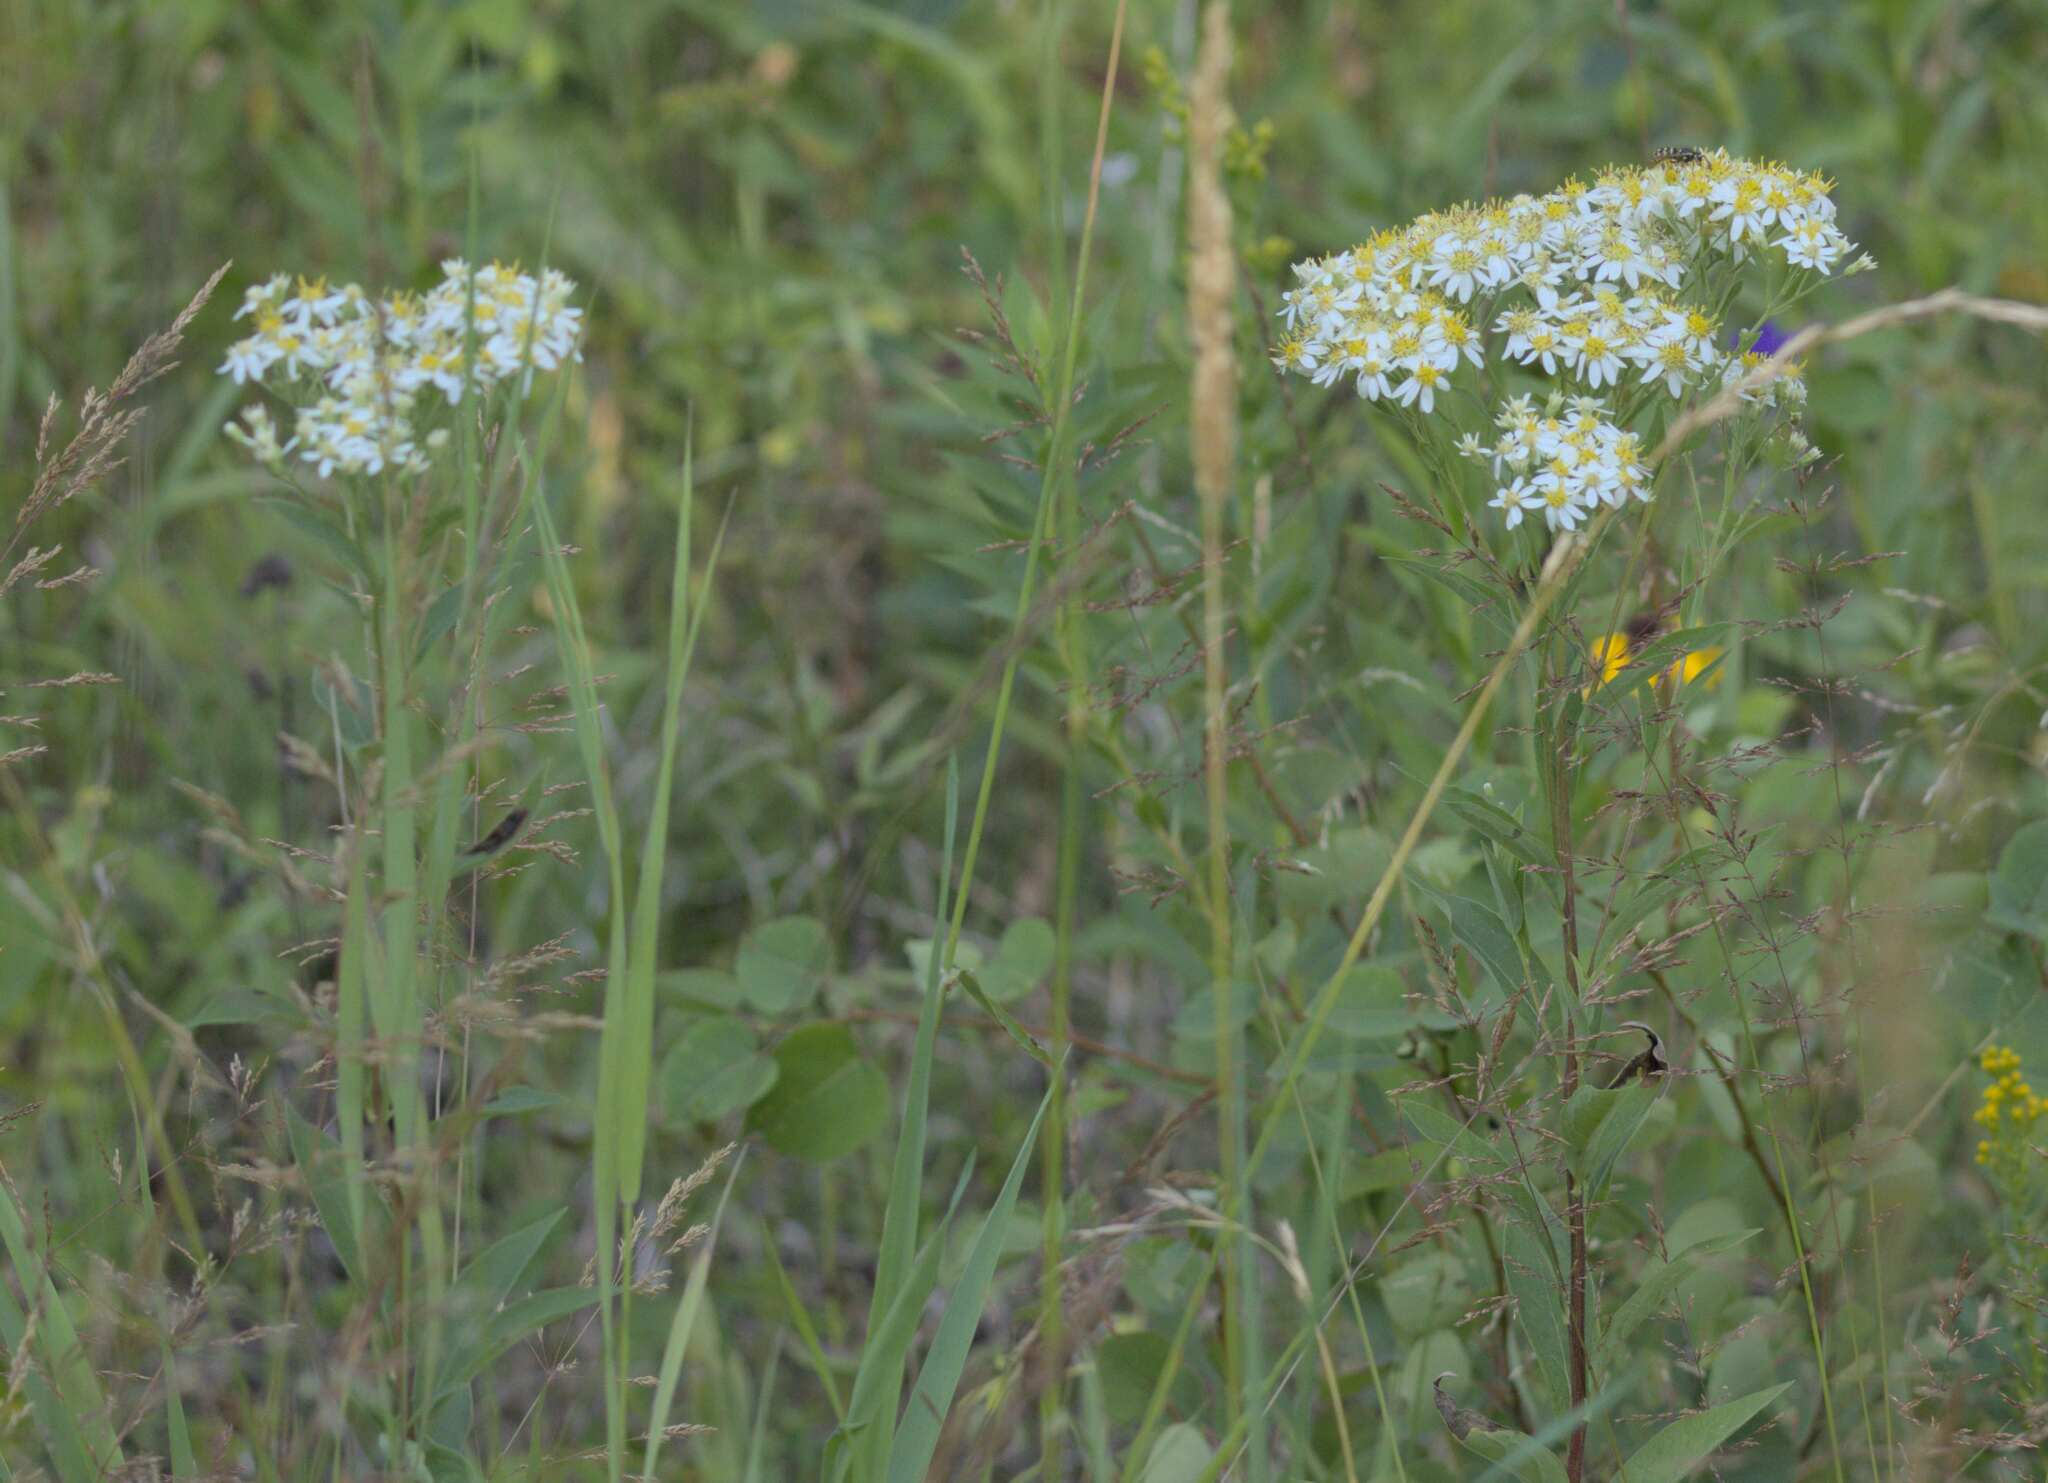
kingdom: Plantae
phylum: Tracheophyta
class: Magnoliopsida
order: Asterales
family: Asteraceae
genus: Doellingeria
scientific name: Doellingeria umbellata
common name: Flat-top white aster
